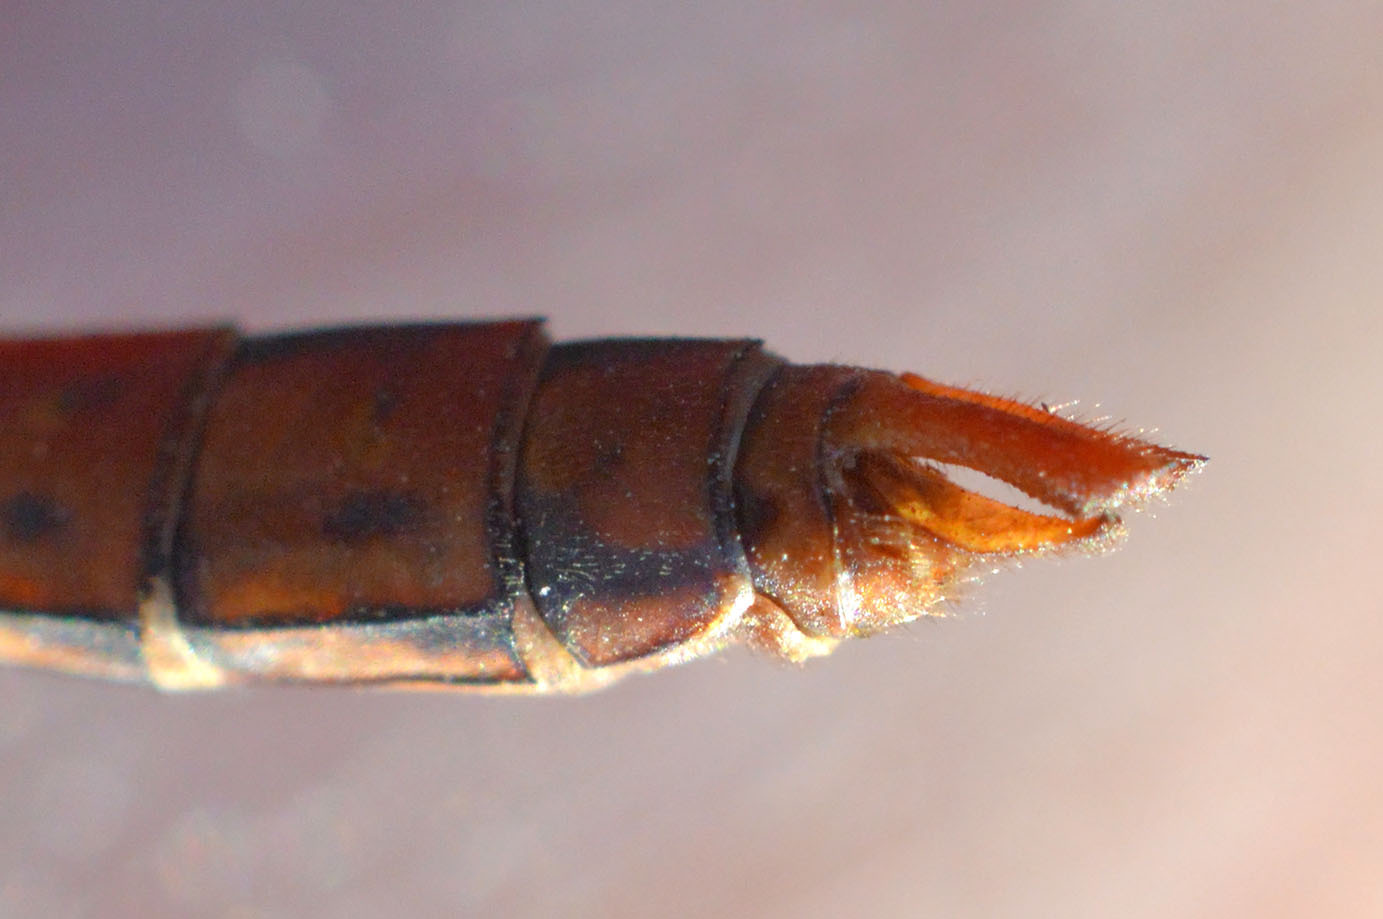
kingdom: Animalia
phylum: Arthropoda
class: Insecta
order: Odonata
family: Libellulidae
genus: Sympetrum
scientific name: Sympetrum striolatum
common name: Common darter
